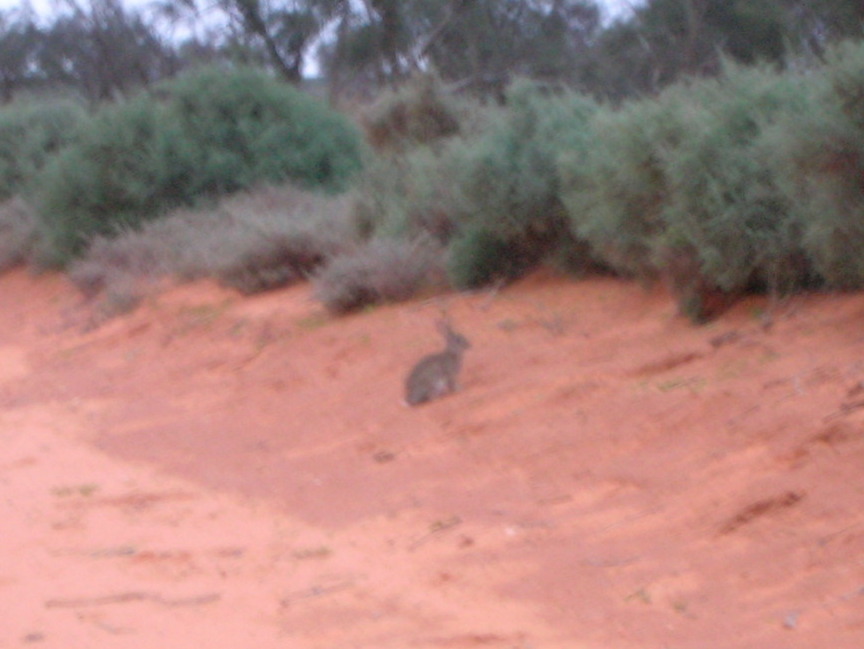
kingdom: Animalia
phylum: Chordata
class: Mammalia
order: Lagomorpha
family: Leporidae
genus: Oryctolagus
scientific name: Oryctolagus cuniculus
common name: European rabbit
